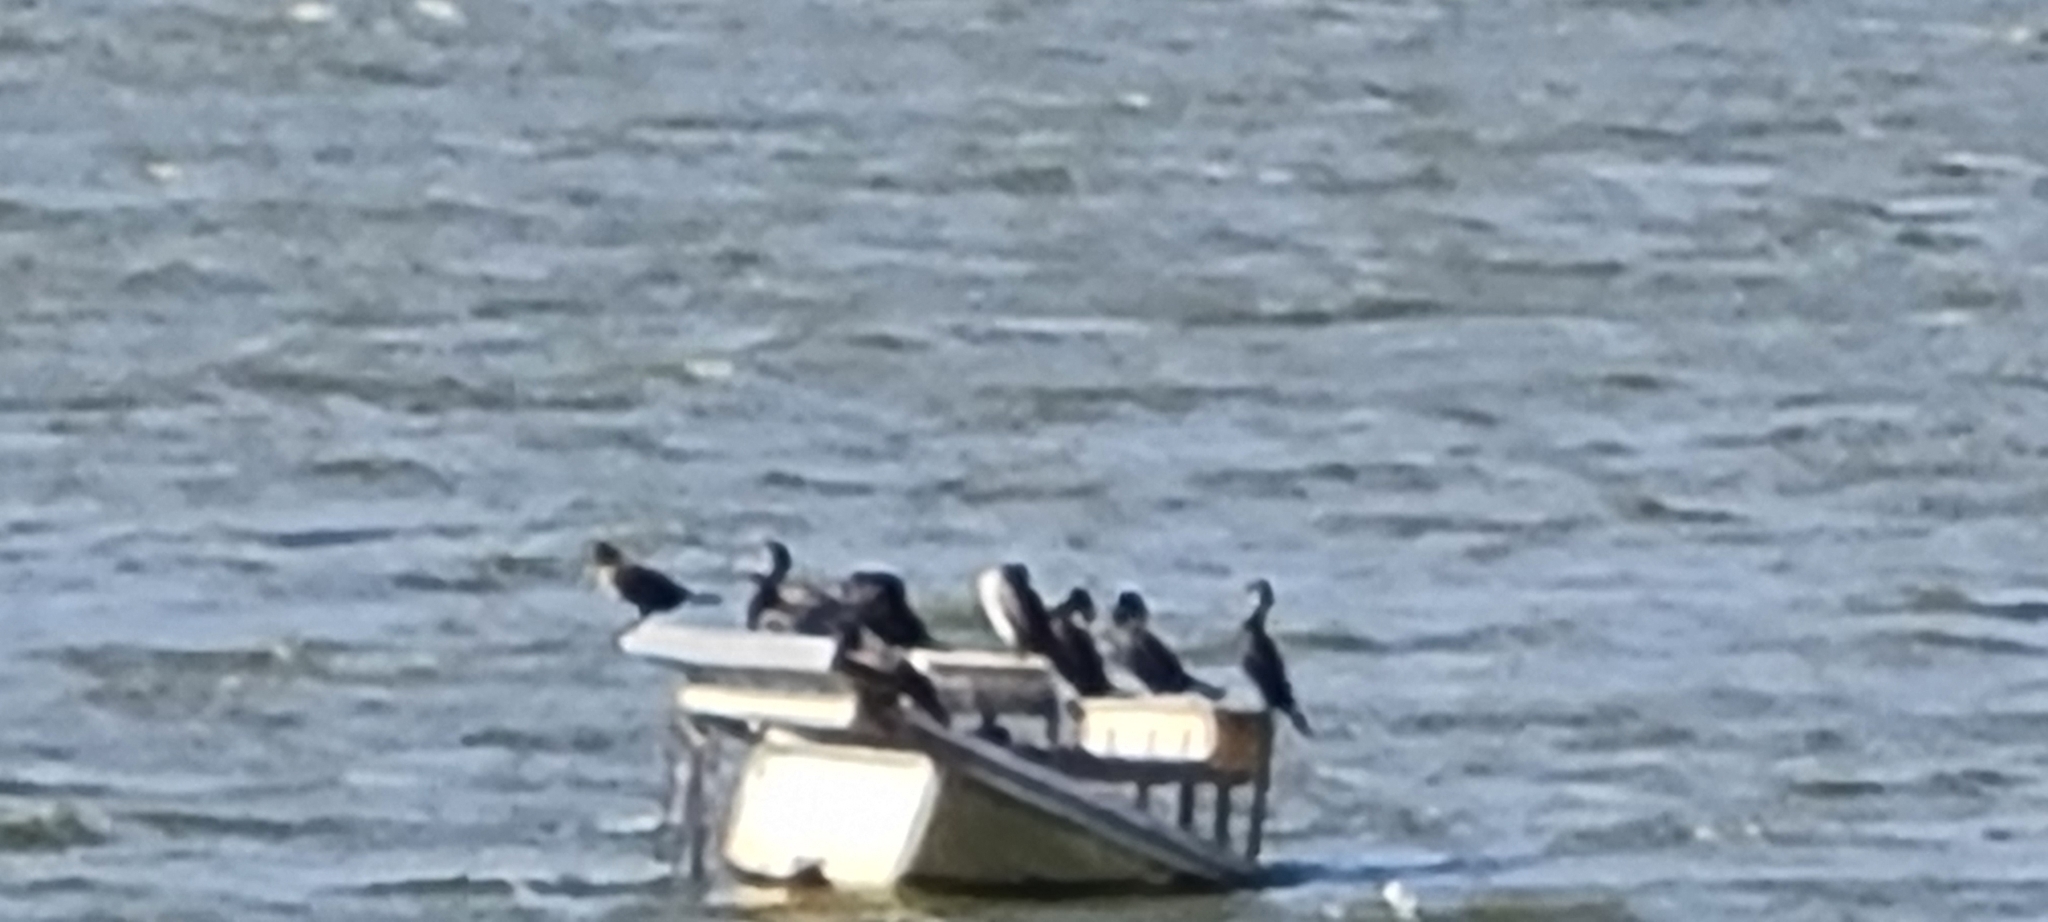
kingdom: Animalia
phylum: Chordata
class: Aves
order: Suliformes
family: Phalacrocoracidae
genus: Phalacrocorax
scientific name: Phalacrocorax carbo
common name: Great cormorant
